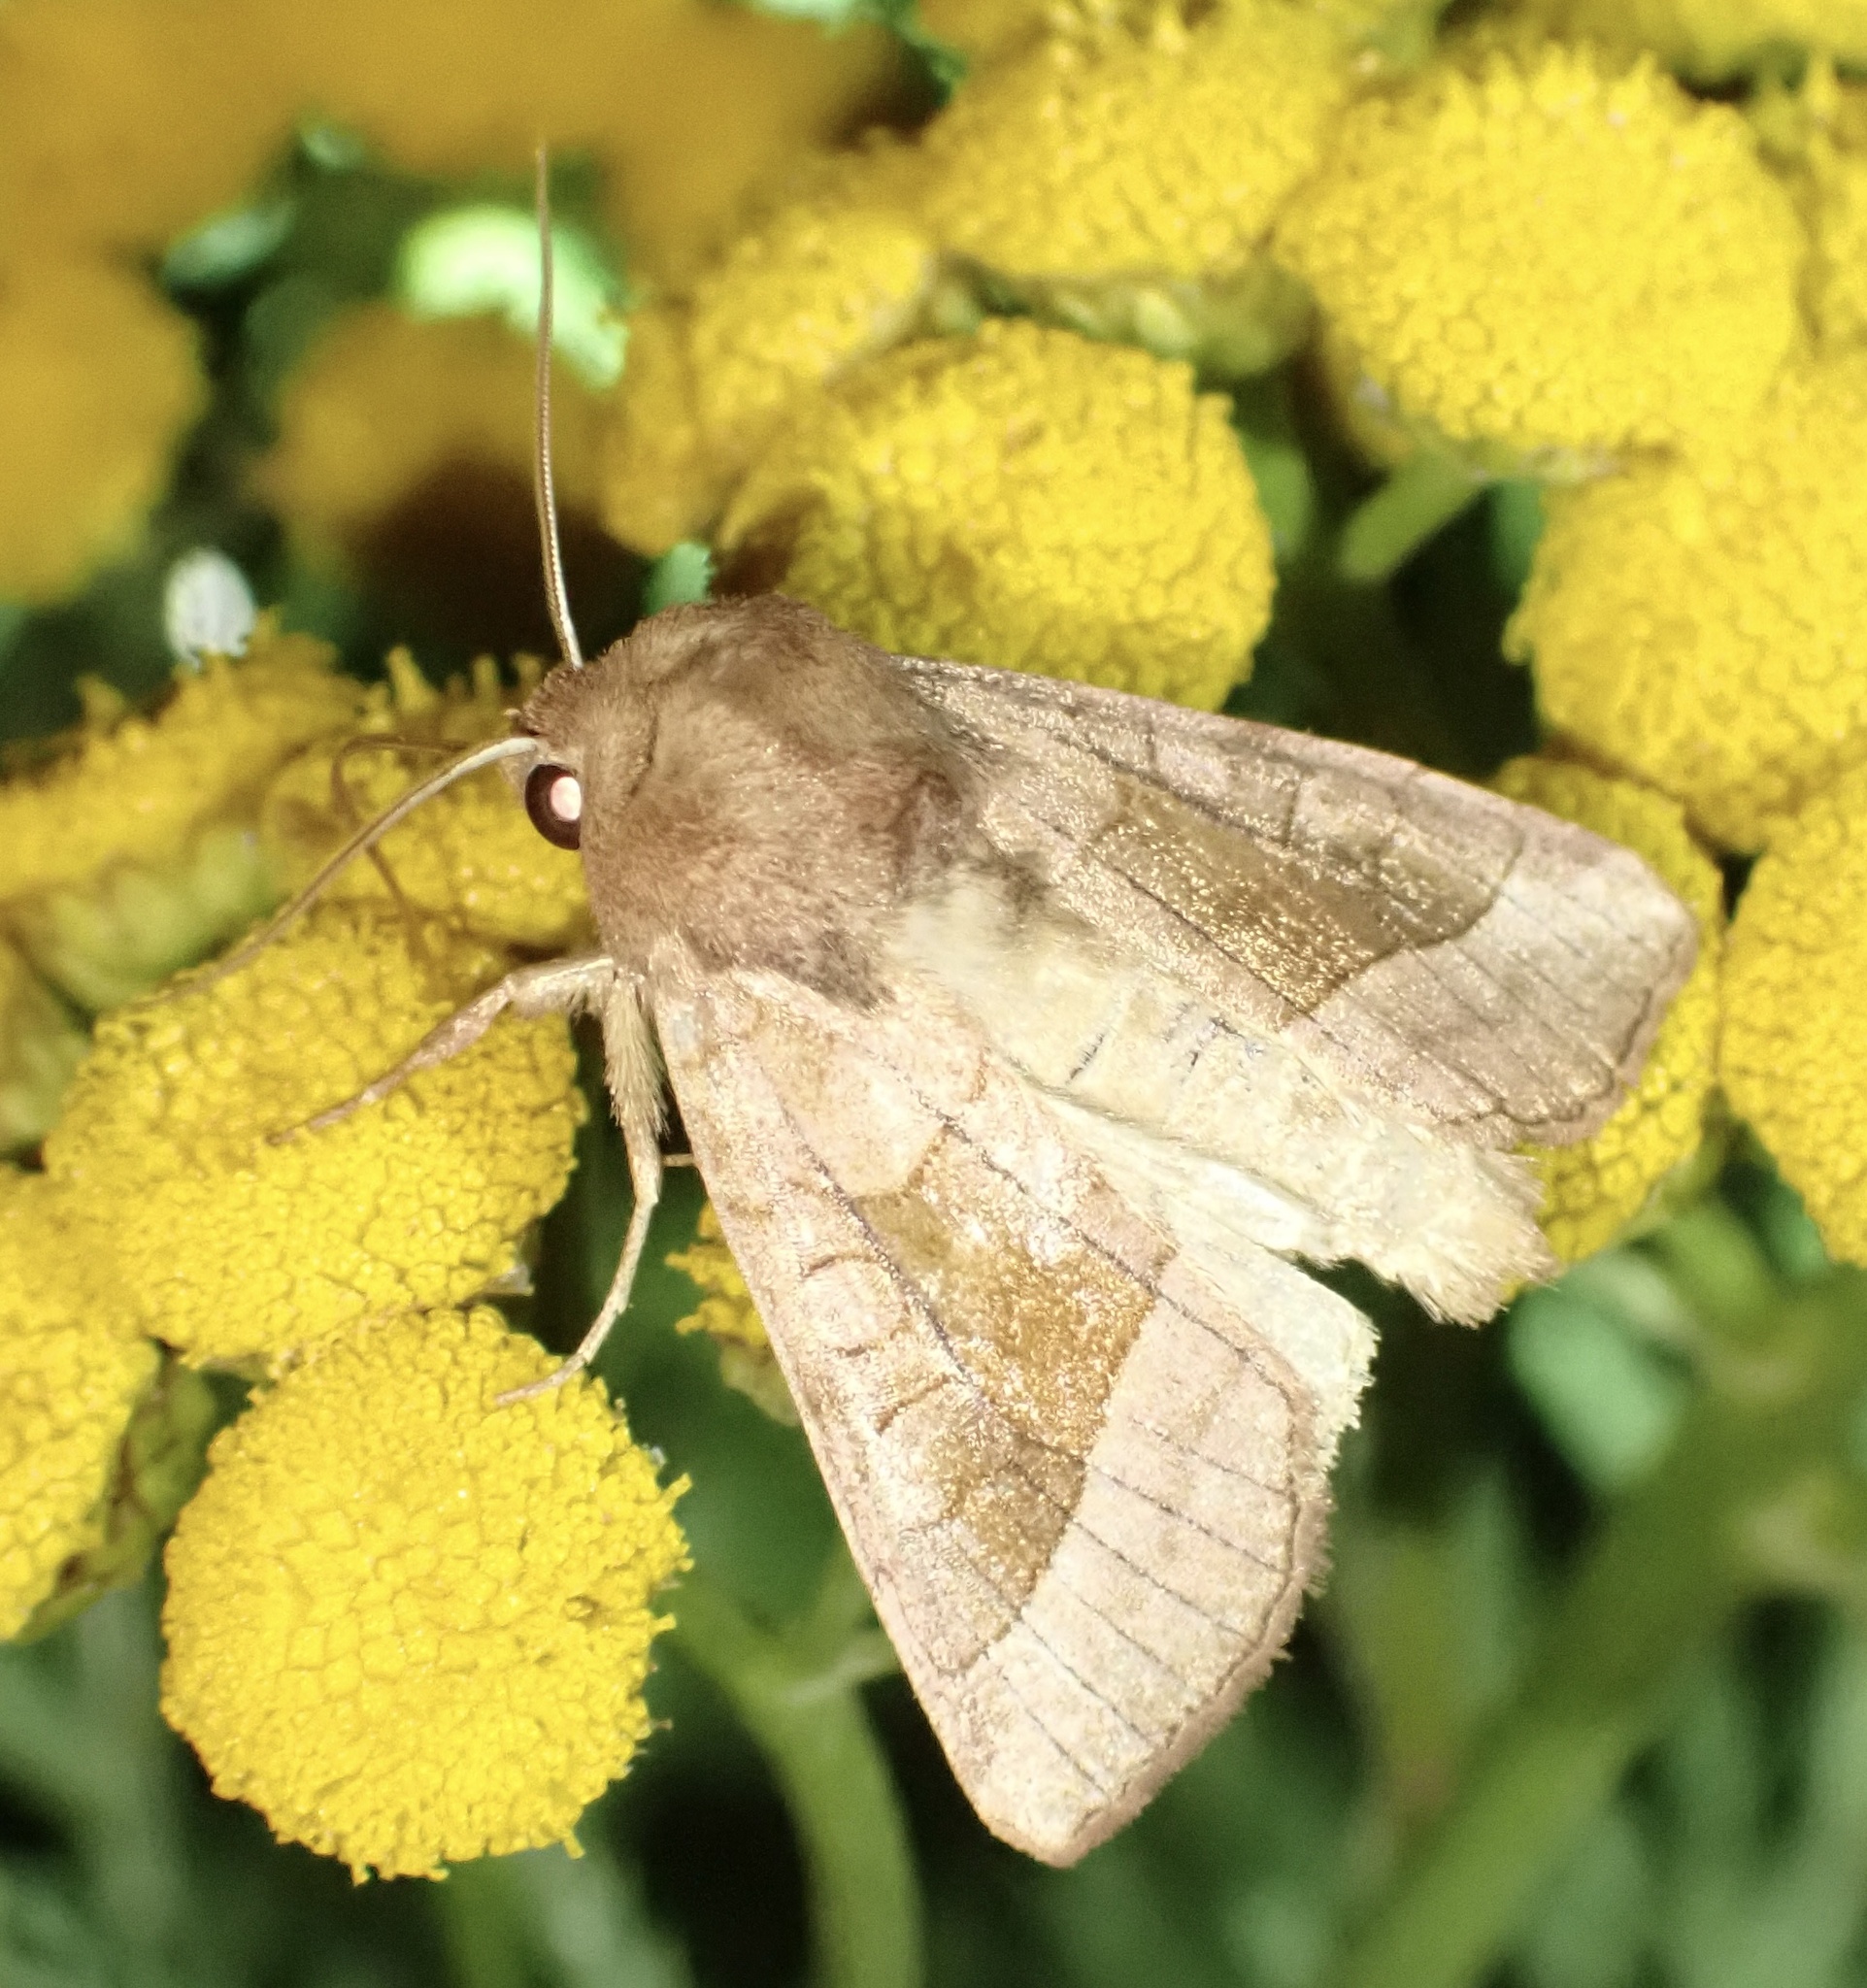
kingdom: Animalia
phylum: Arthropoda
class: Insecta
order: Lepidoptera
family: Noctuidae
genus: Hydraecia
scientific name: Hydraecia micacea
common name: Rosy rustic
